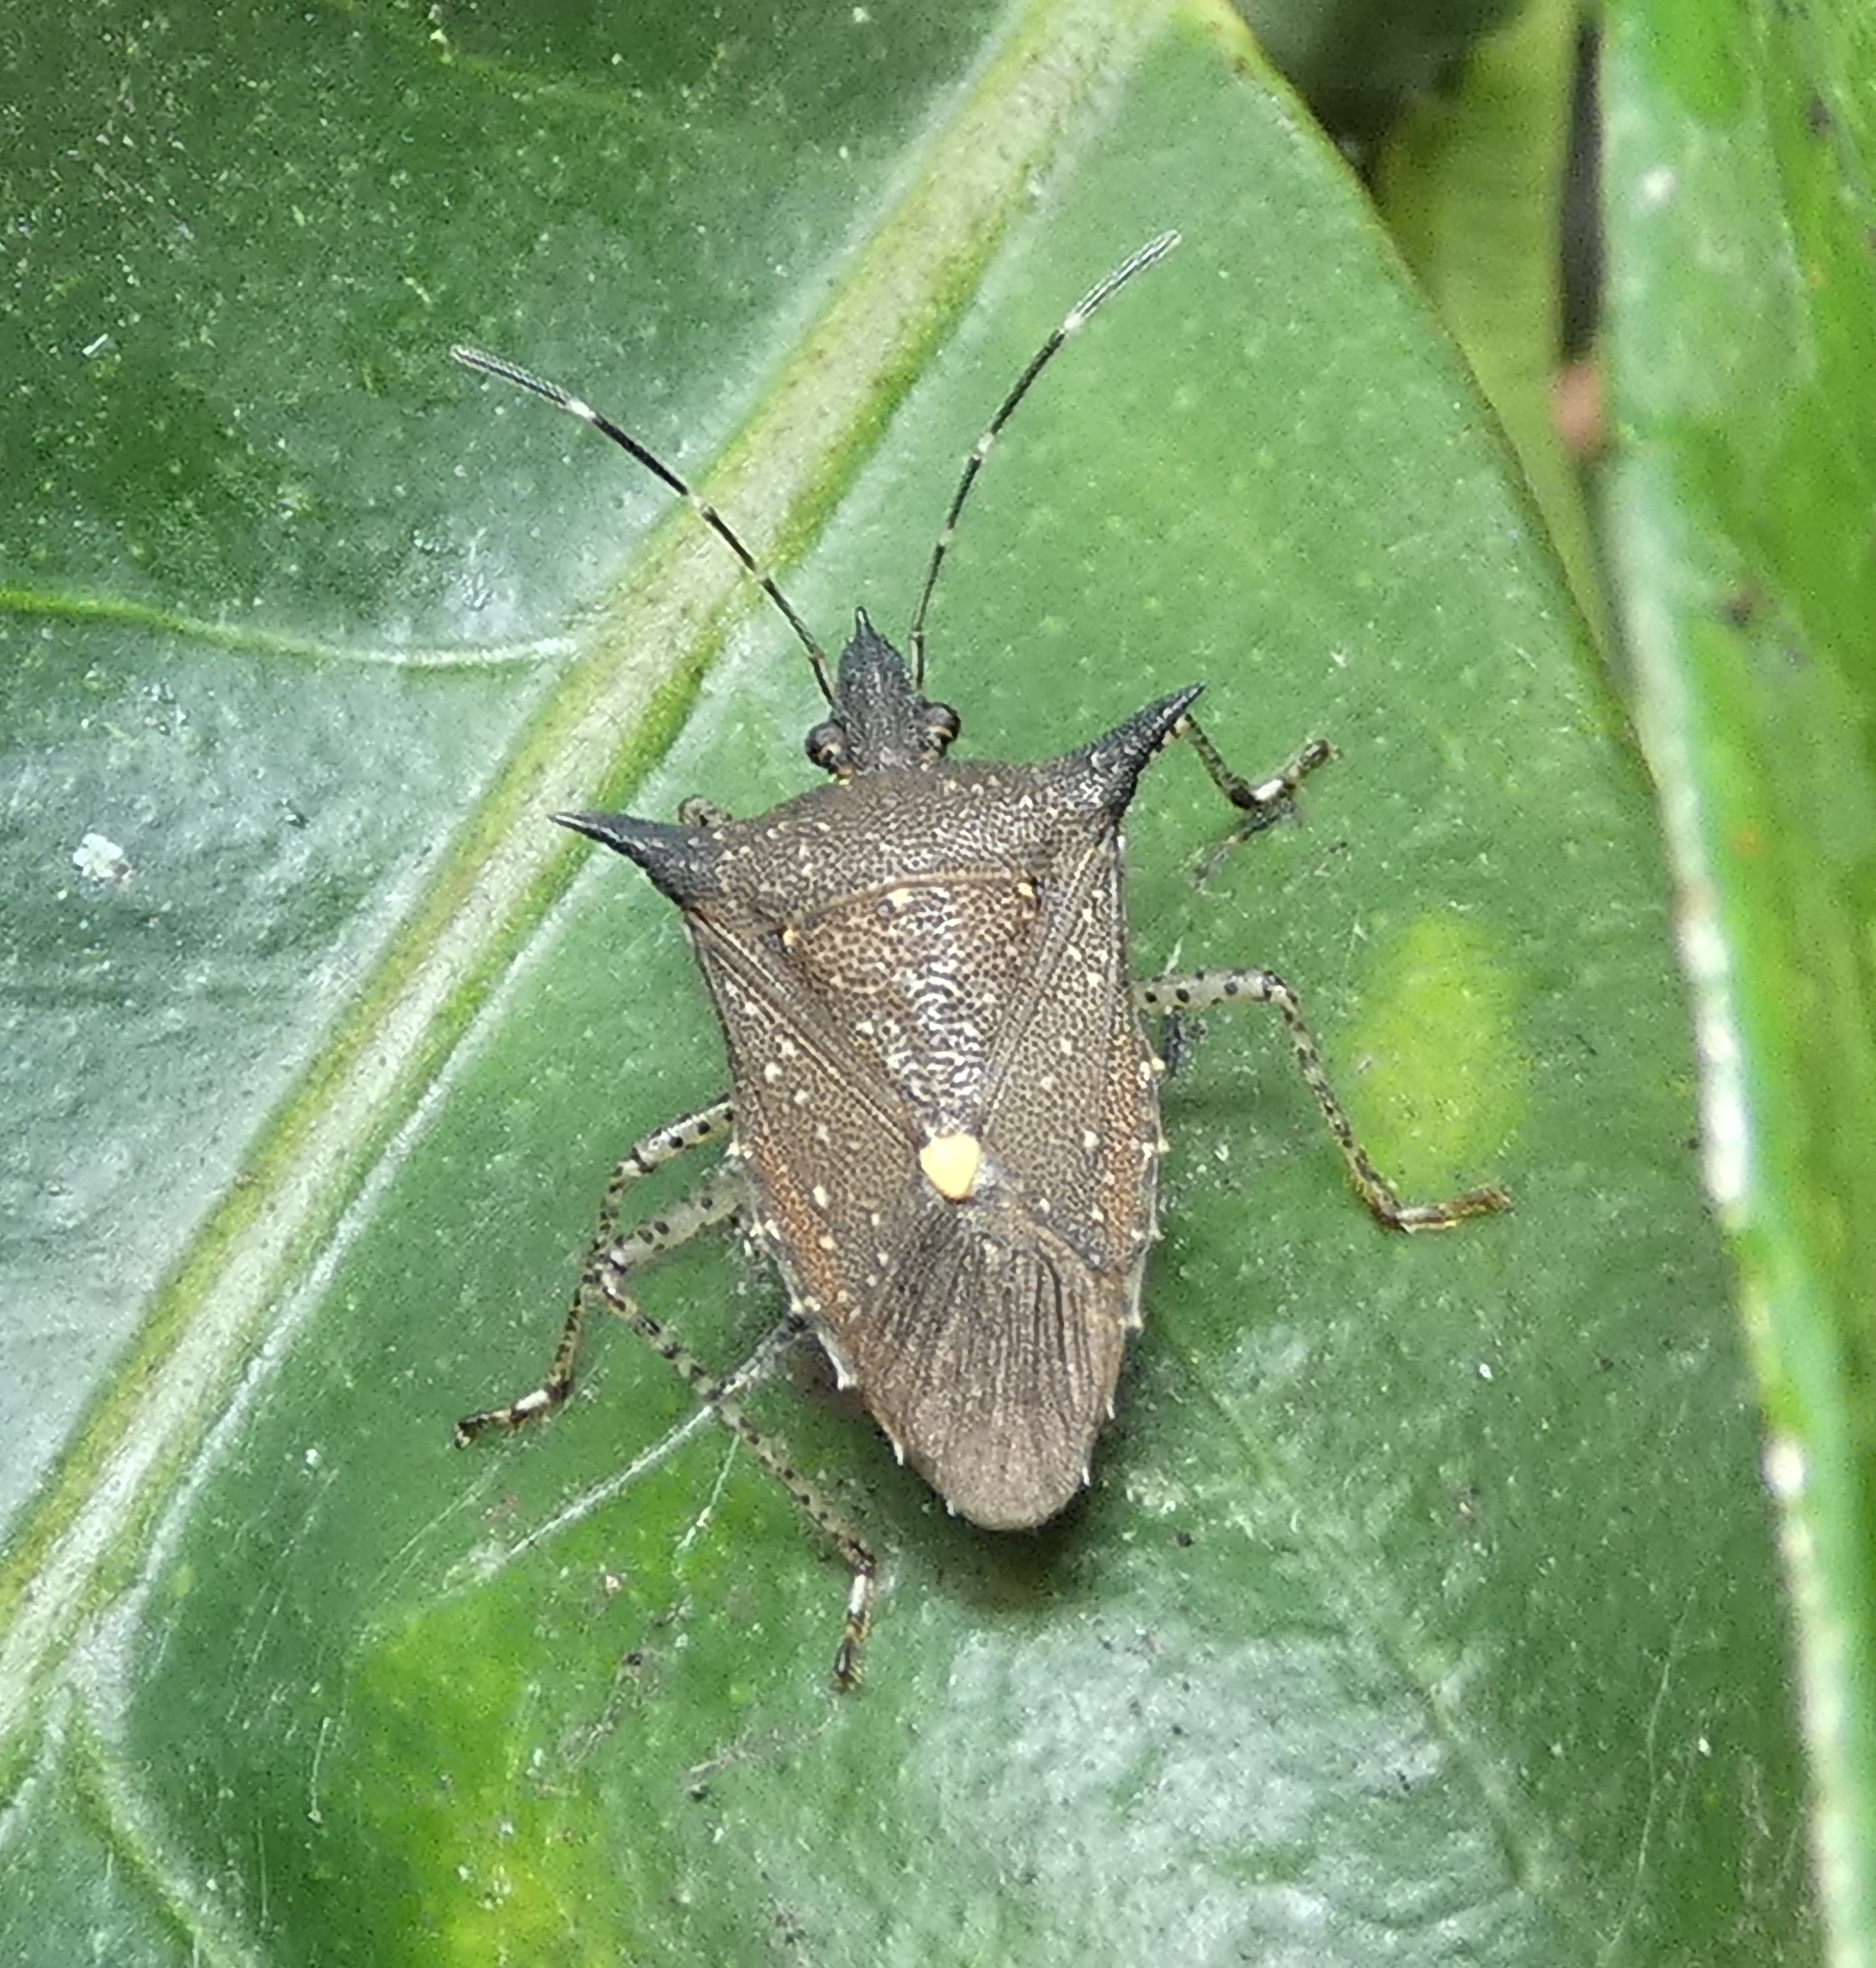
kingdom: Animalia
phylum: Arthropoda
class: Insecta
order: Hemiptera
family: Pentatomidae
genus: Proxys
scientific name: Proxys albopunctulatus
